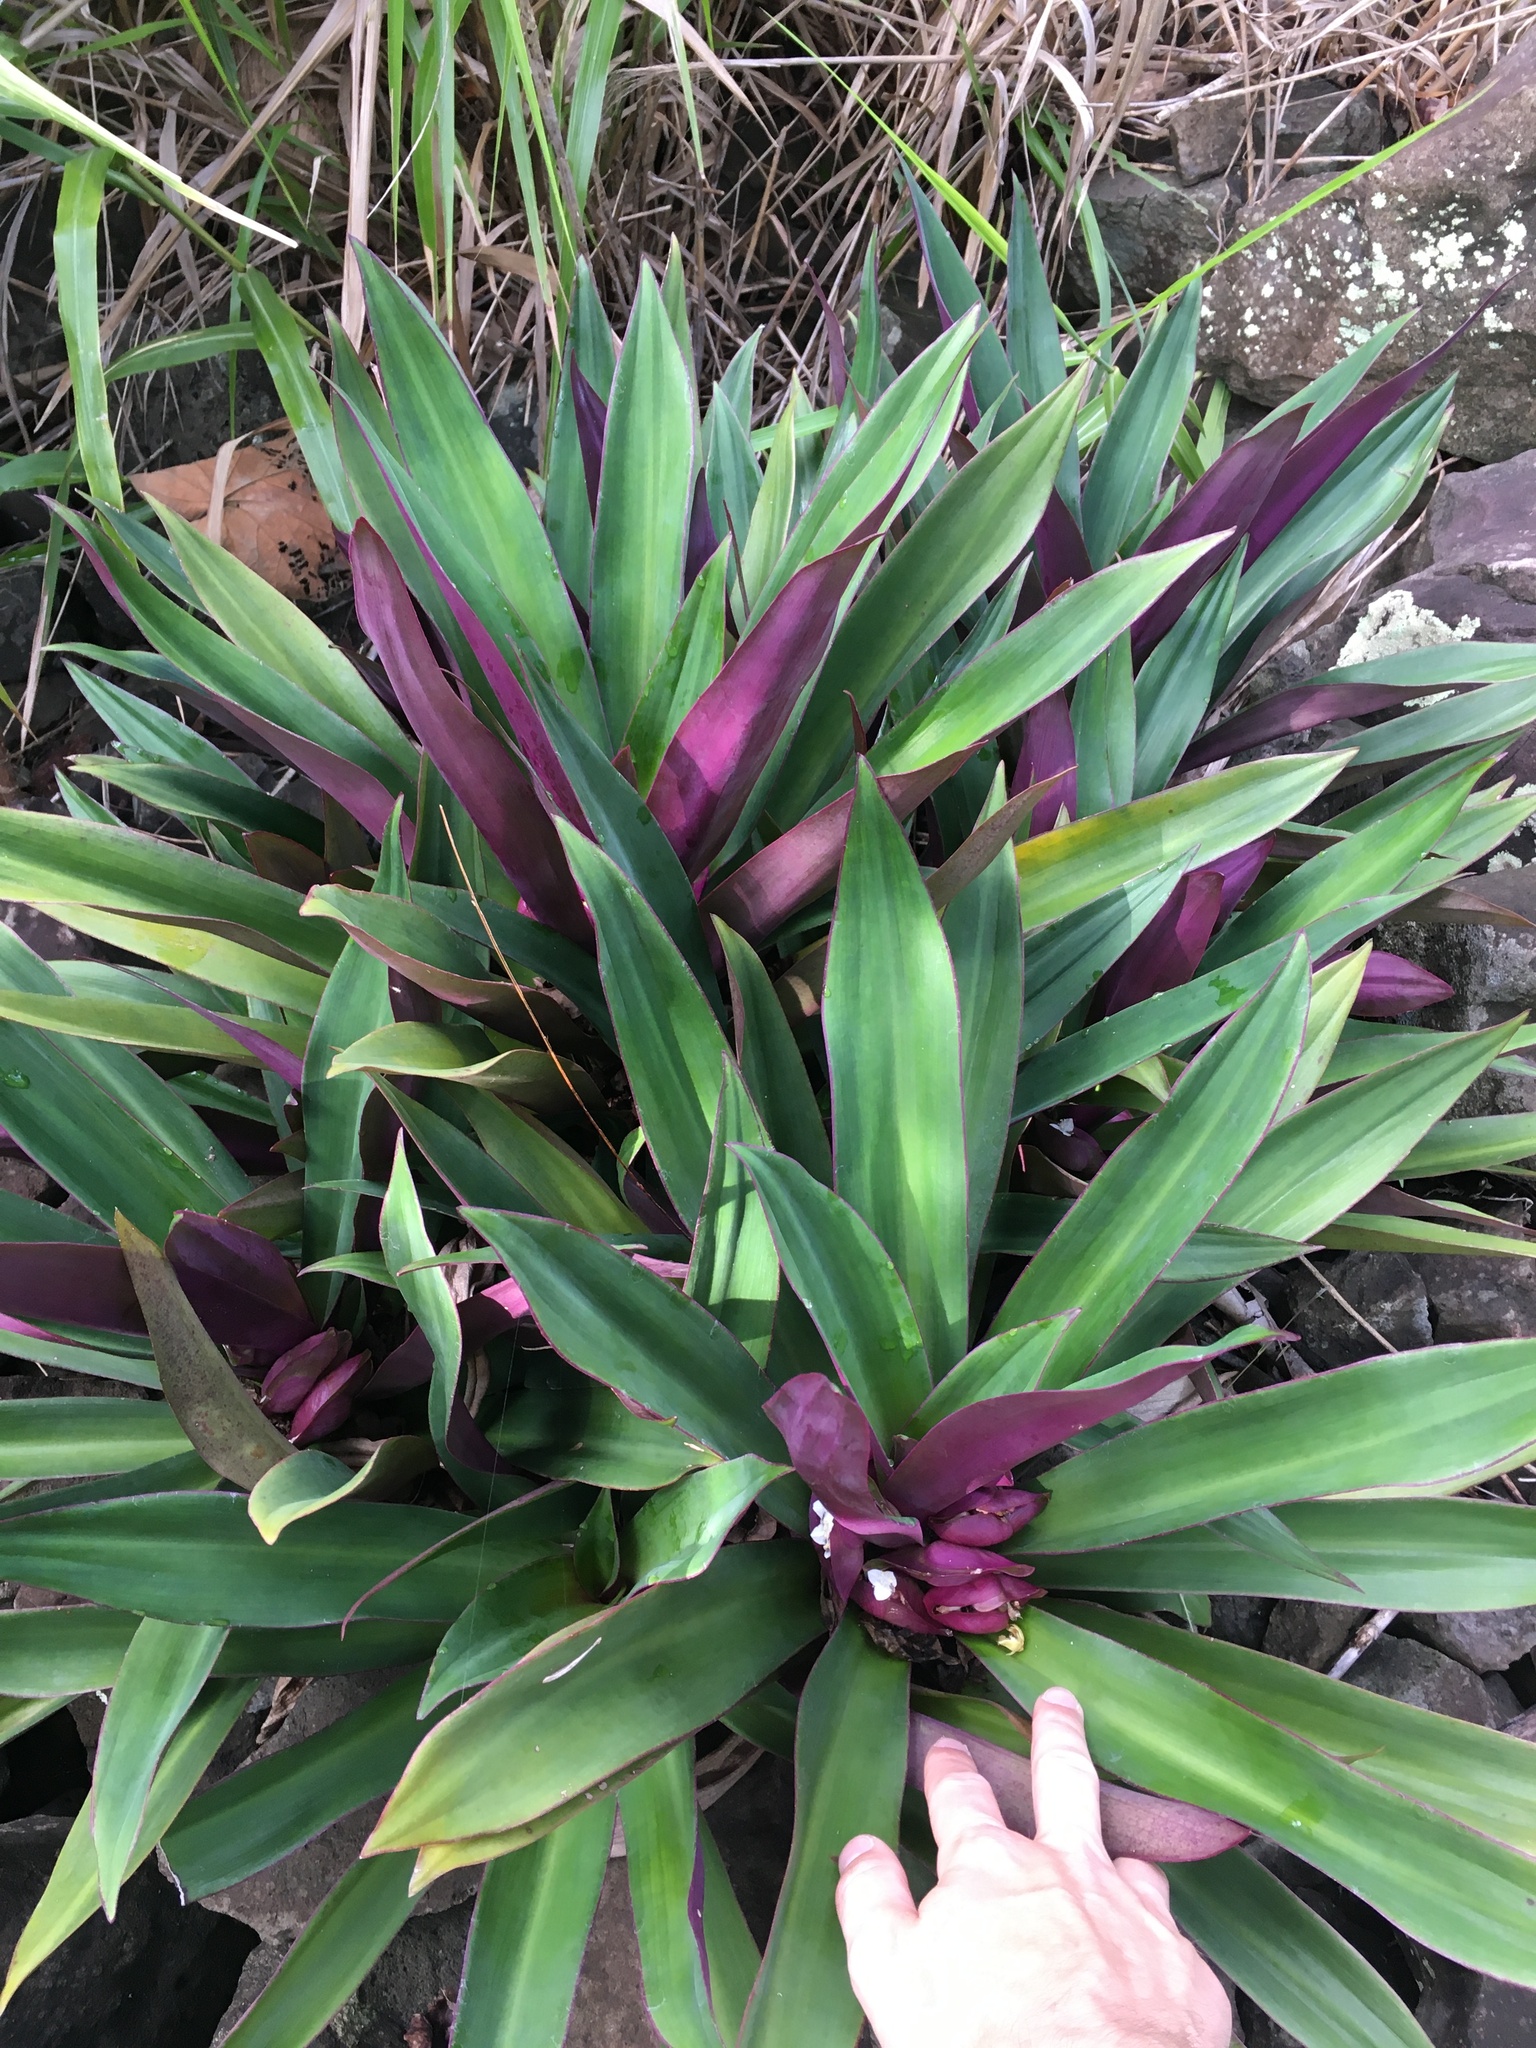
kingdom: Plantae
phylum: Tracheophyta
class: Liliopsida
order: Commelinales
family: Commelinaceae
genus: Tradescantia
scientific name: Tradescantia spathacea
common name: Boatlily
